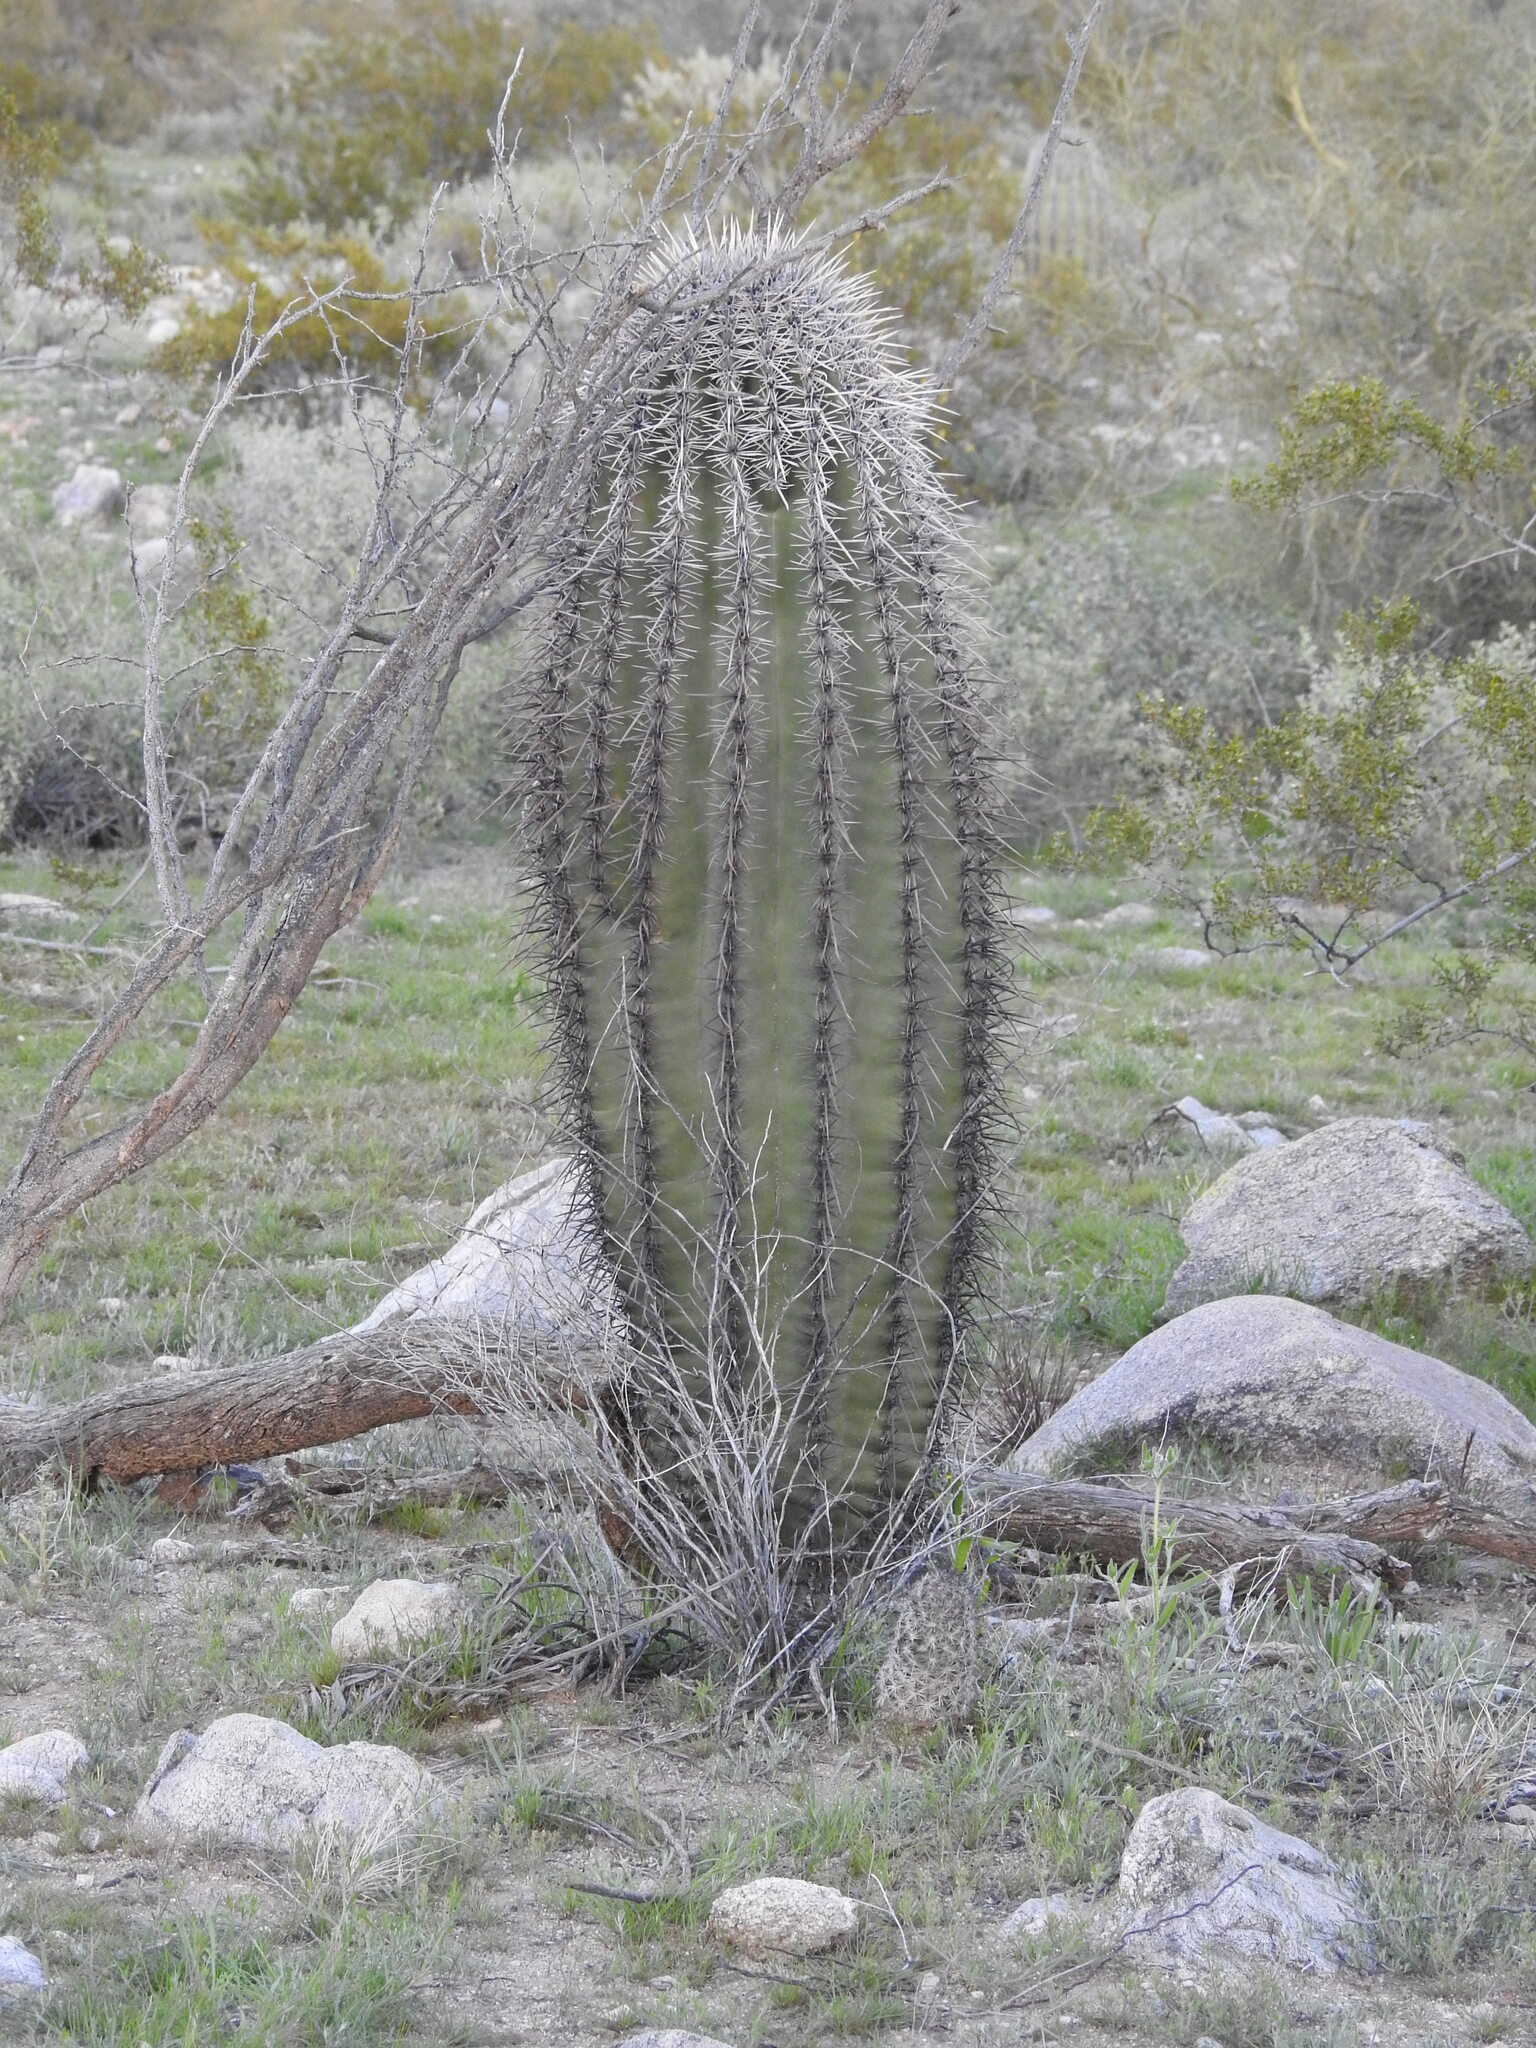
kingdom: Plantae
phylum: Tracheophyta
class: Magnoliopsida
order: Caryophyllales
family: Cactaceae
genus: Carnegiea
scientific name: Carnegiea gigantea
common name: Saguaro
